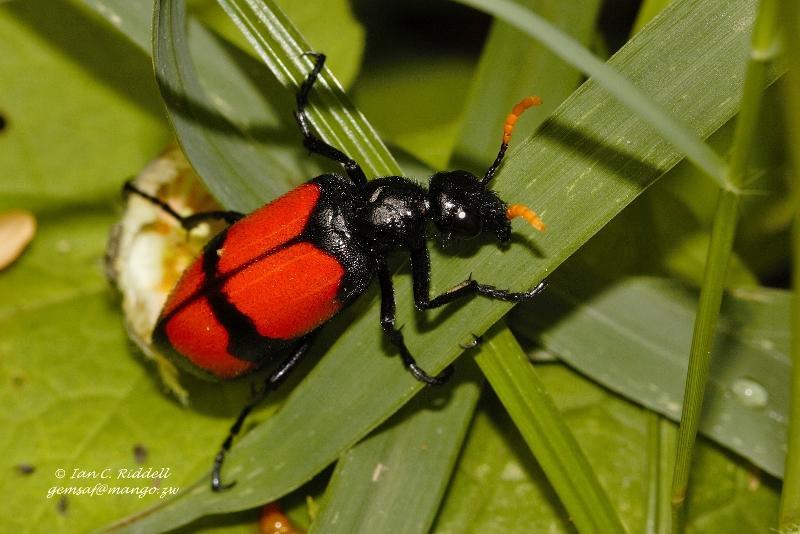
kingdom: Animalia
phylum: Arthropoda
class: Insecta
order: Coleoptera
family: Meloidae
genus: Hycleus
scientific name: Hycleus tekkensis
